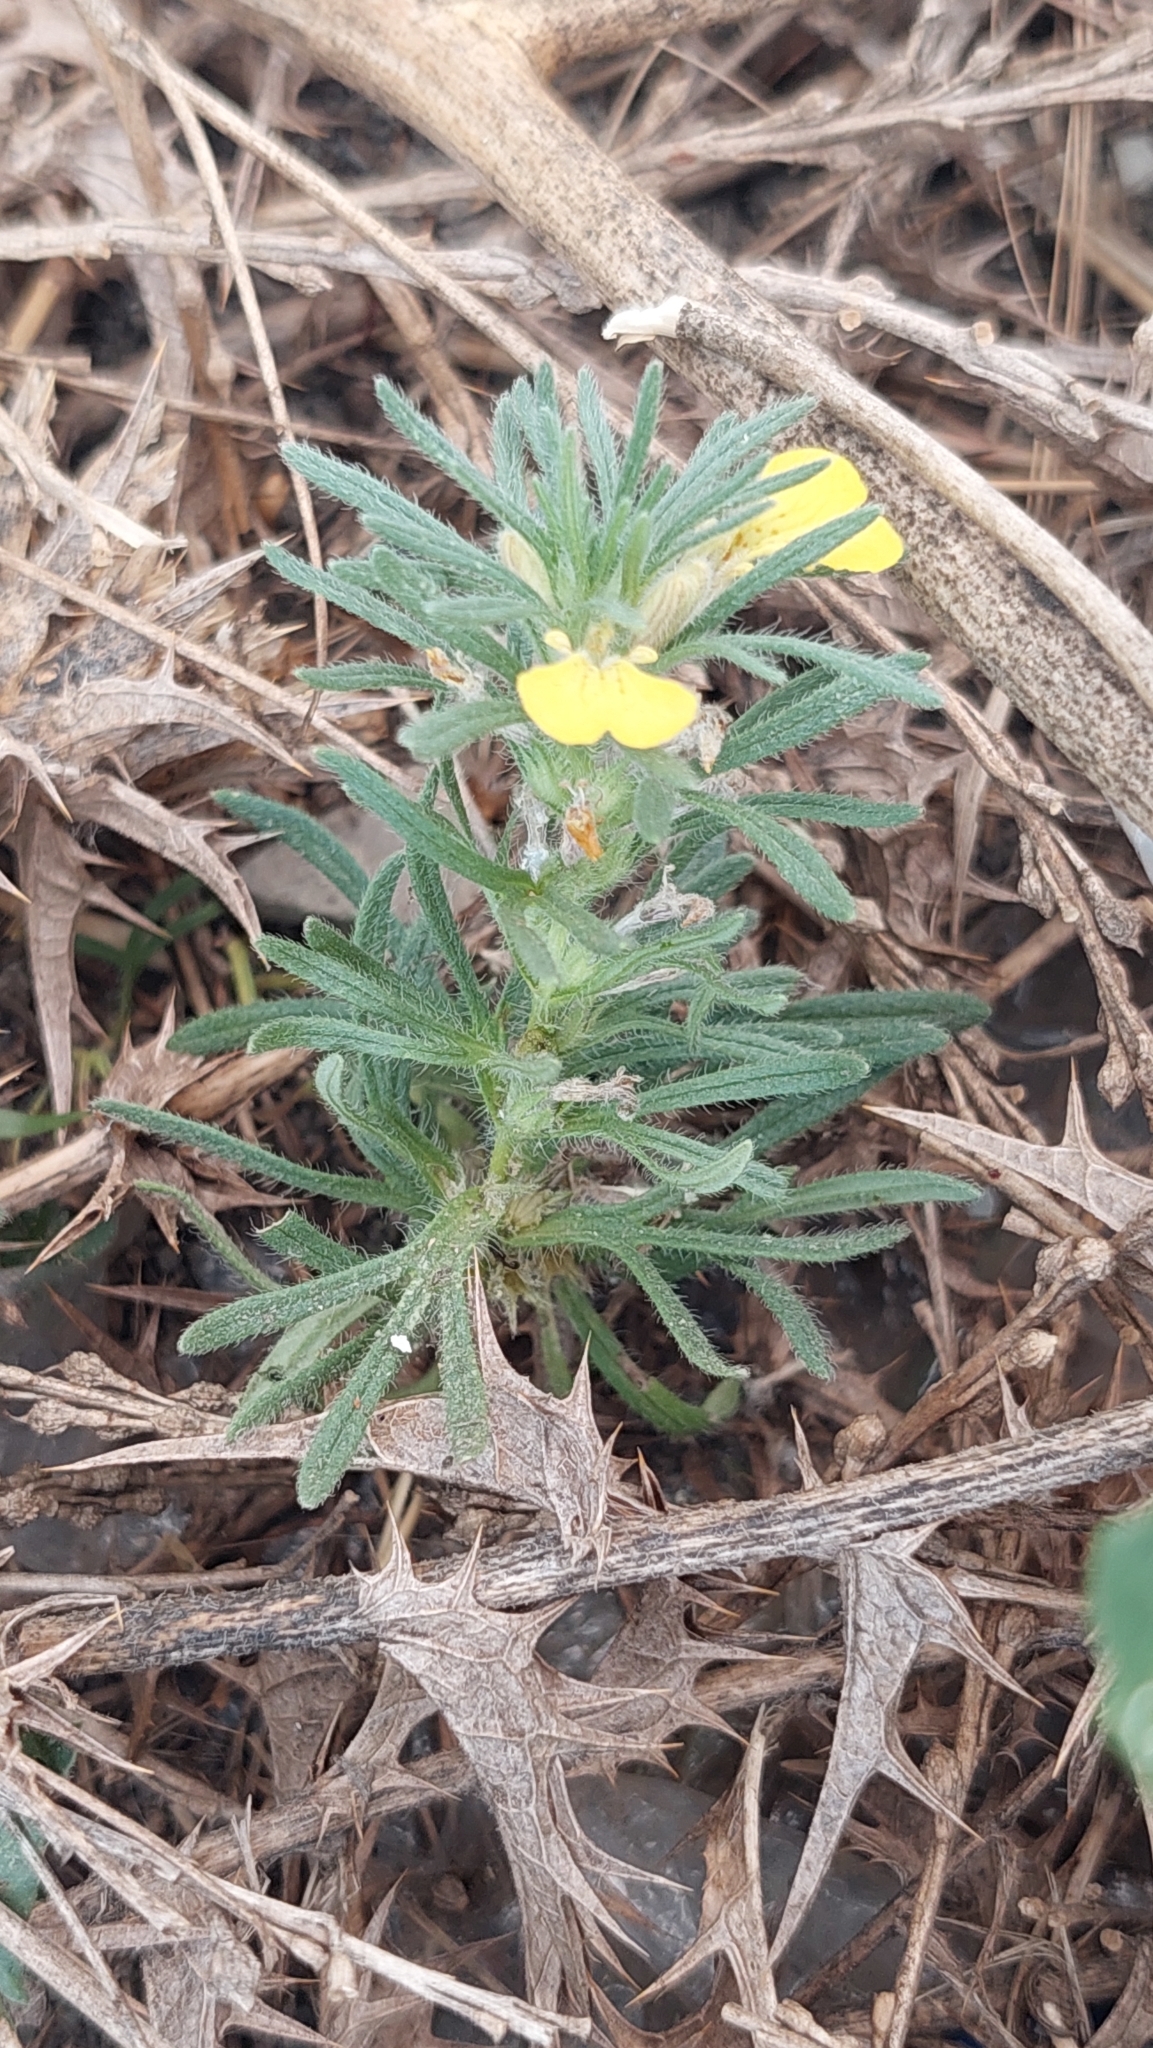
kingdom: Plantae
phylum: Tracheophyta
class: Magnoliopsida
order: Lamiales
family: Lamiaceae
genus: Ajuga
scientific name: Ajuga chamaepitys
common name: Ground-pine
